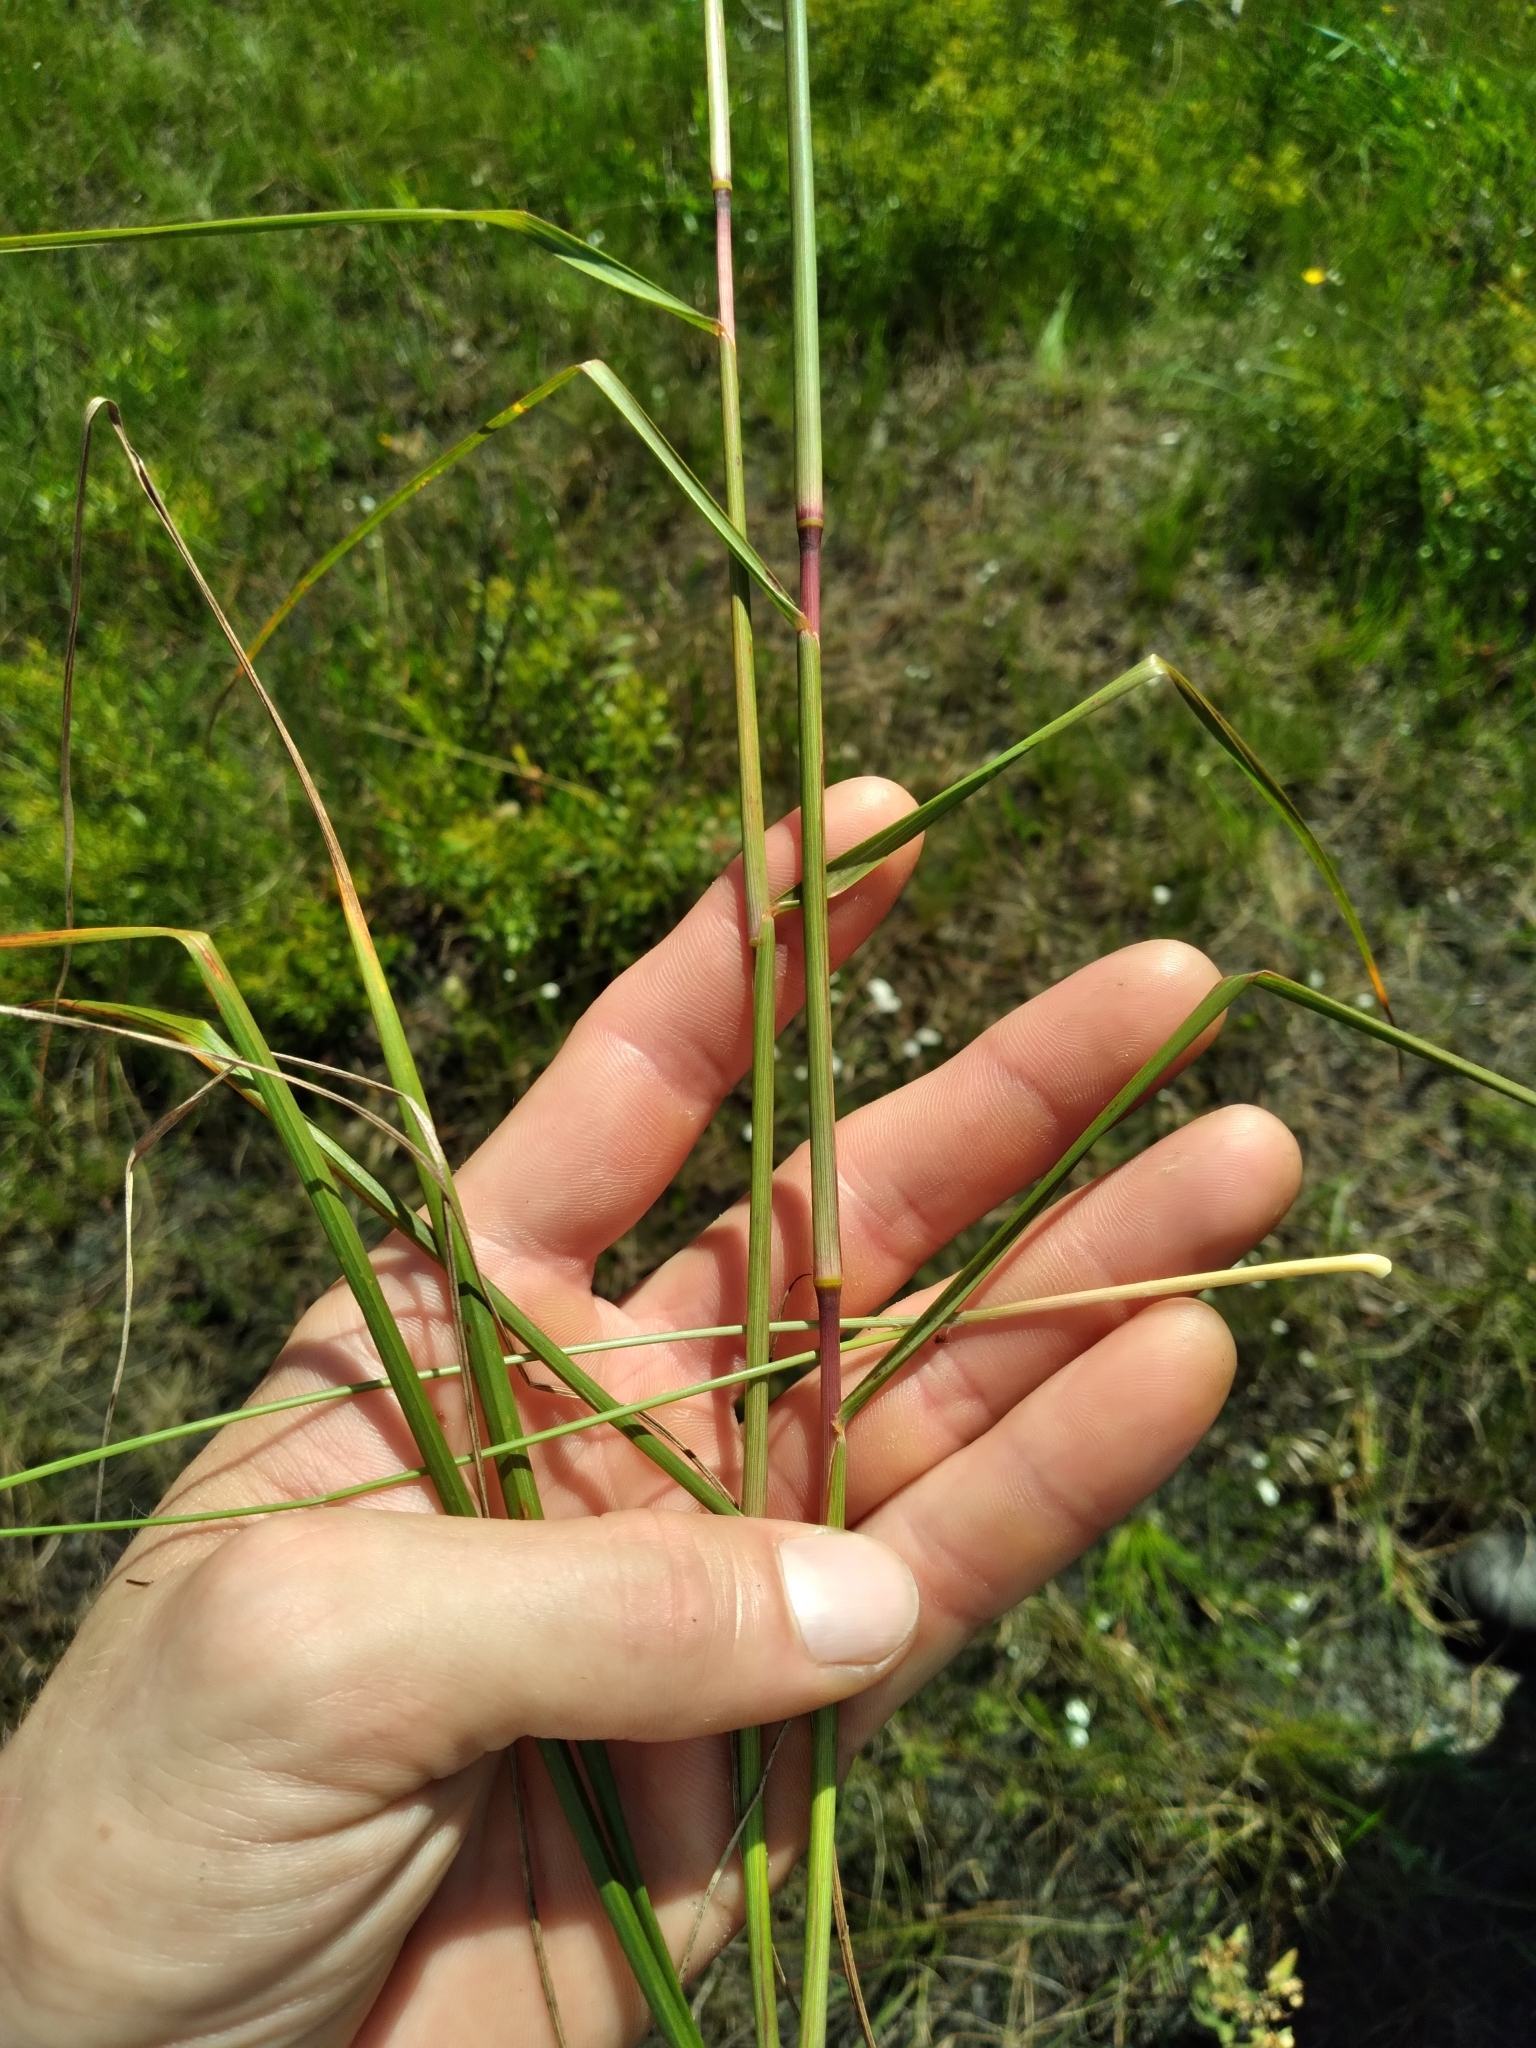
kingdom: Plantae
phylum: Tracheophyta
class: Liliopsida
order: Poales
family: Poaceae
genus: Elionurus
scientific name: Elionurus tripsacoides
